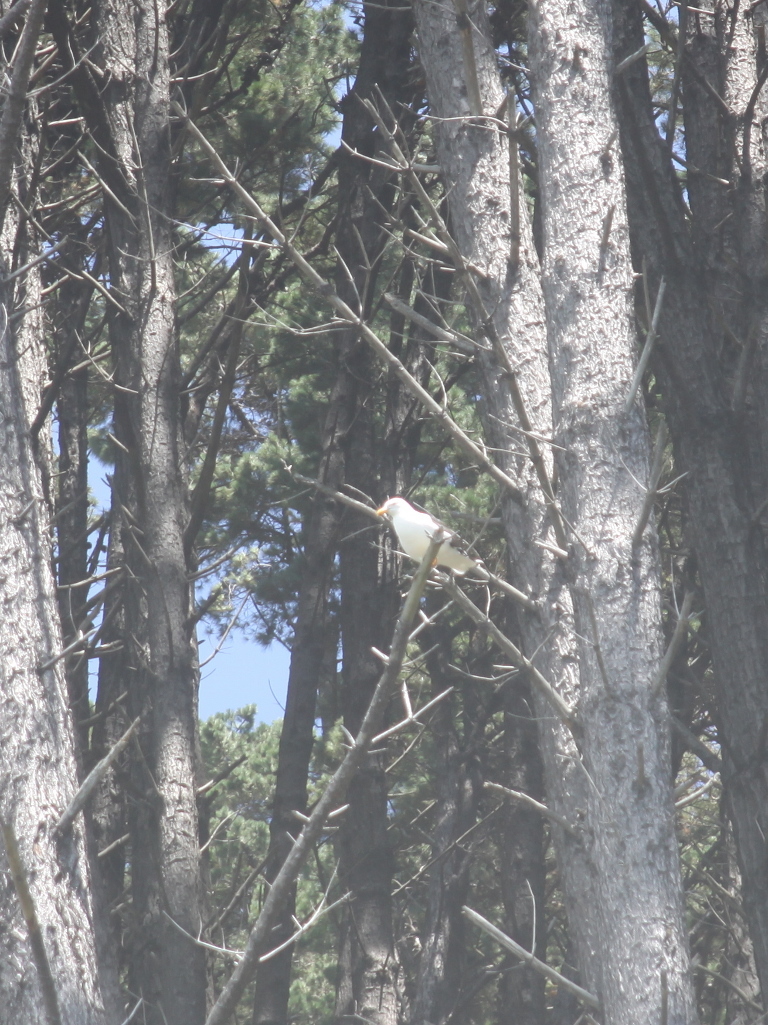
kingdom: Animalia
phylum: Chordata
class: Aves
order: Charadriiformes
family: Laridae
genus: Larus
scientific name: Larus dominicanus
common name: Kelp gull
